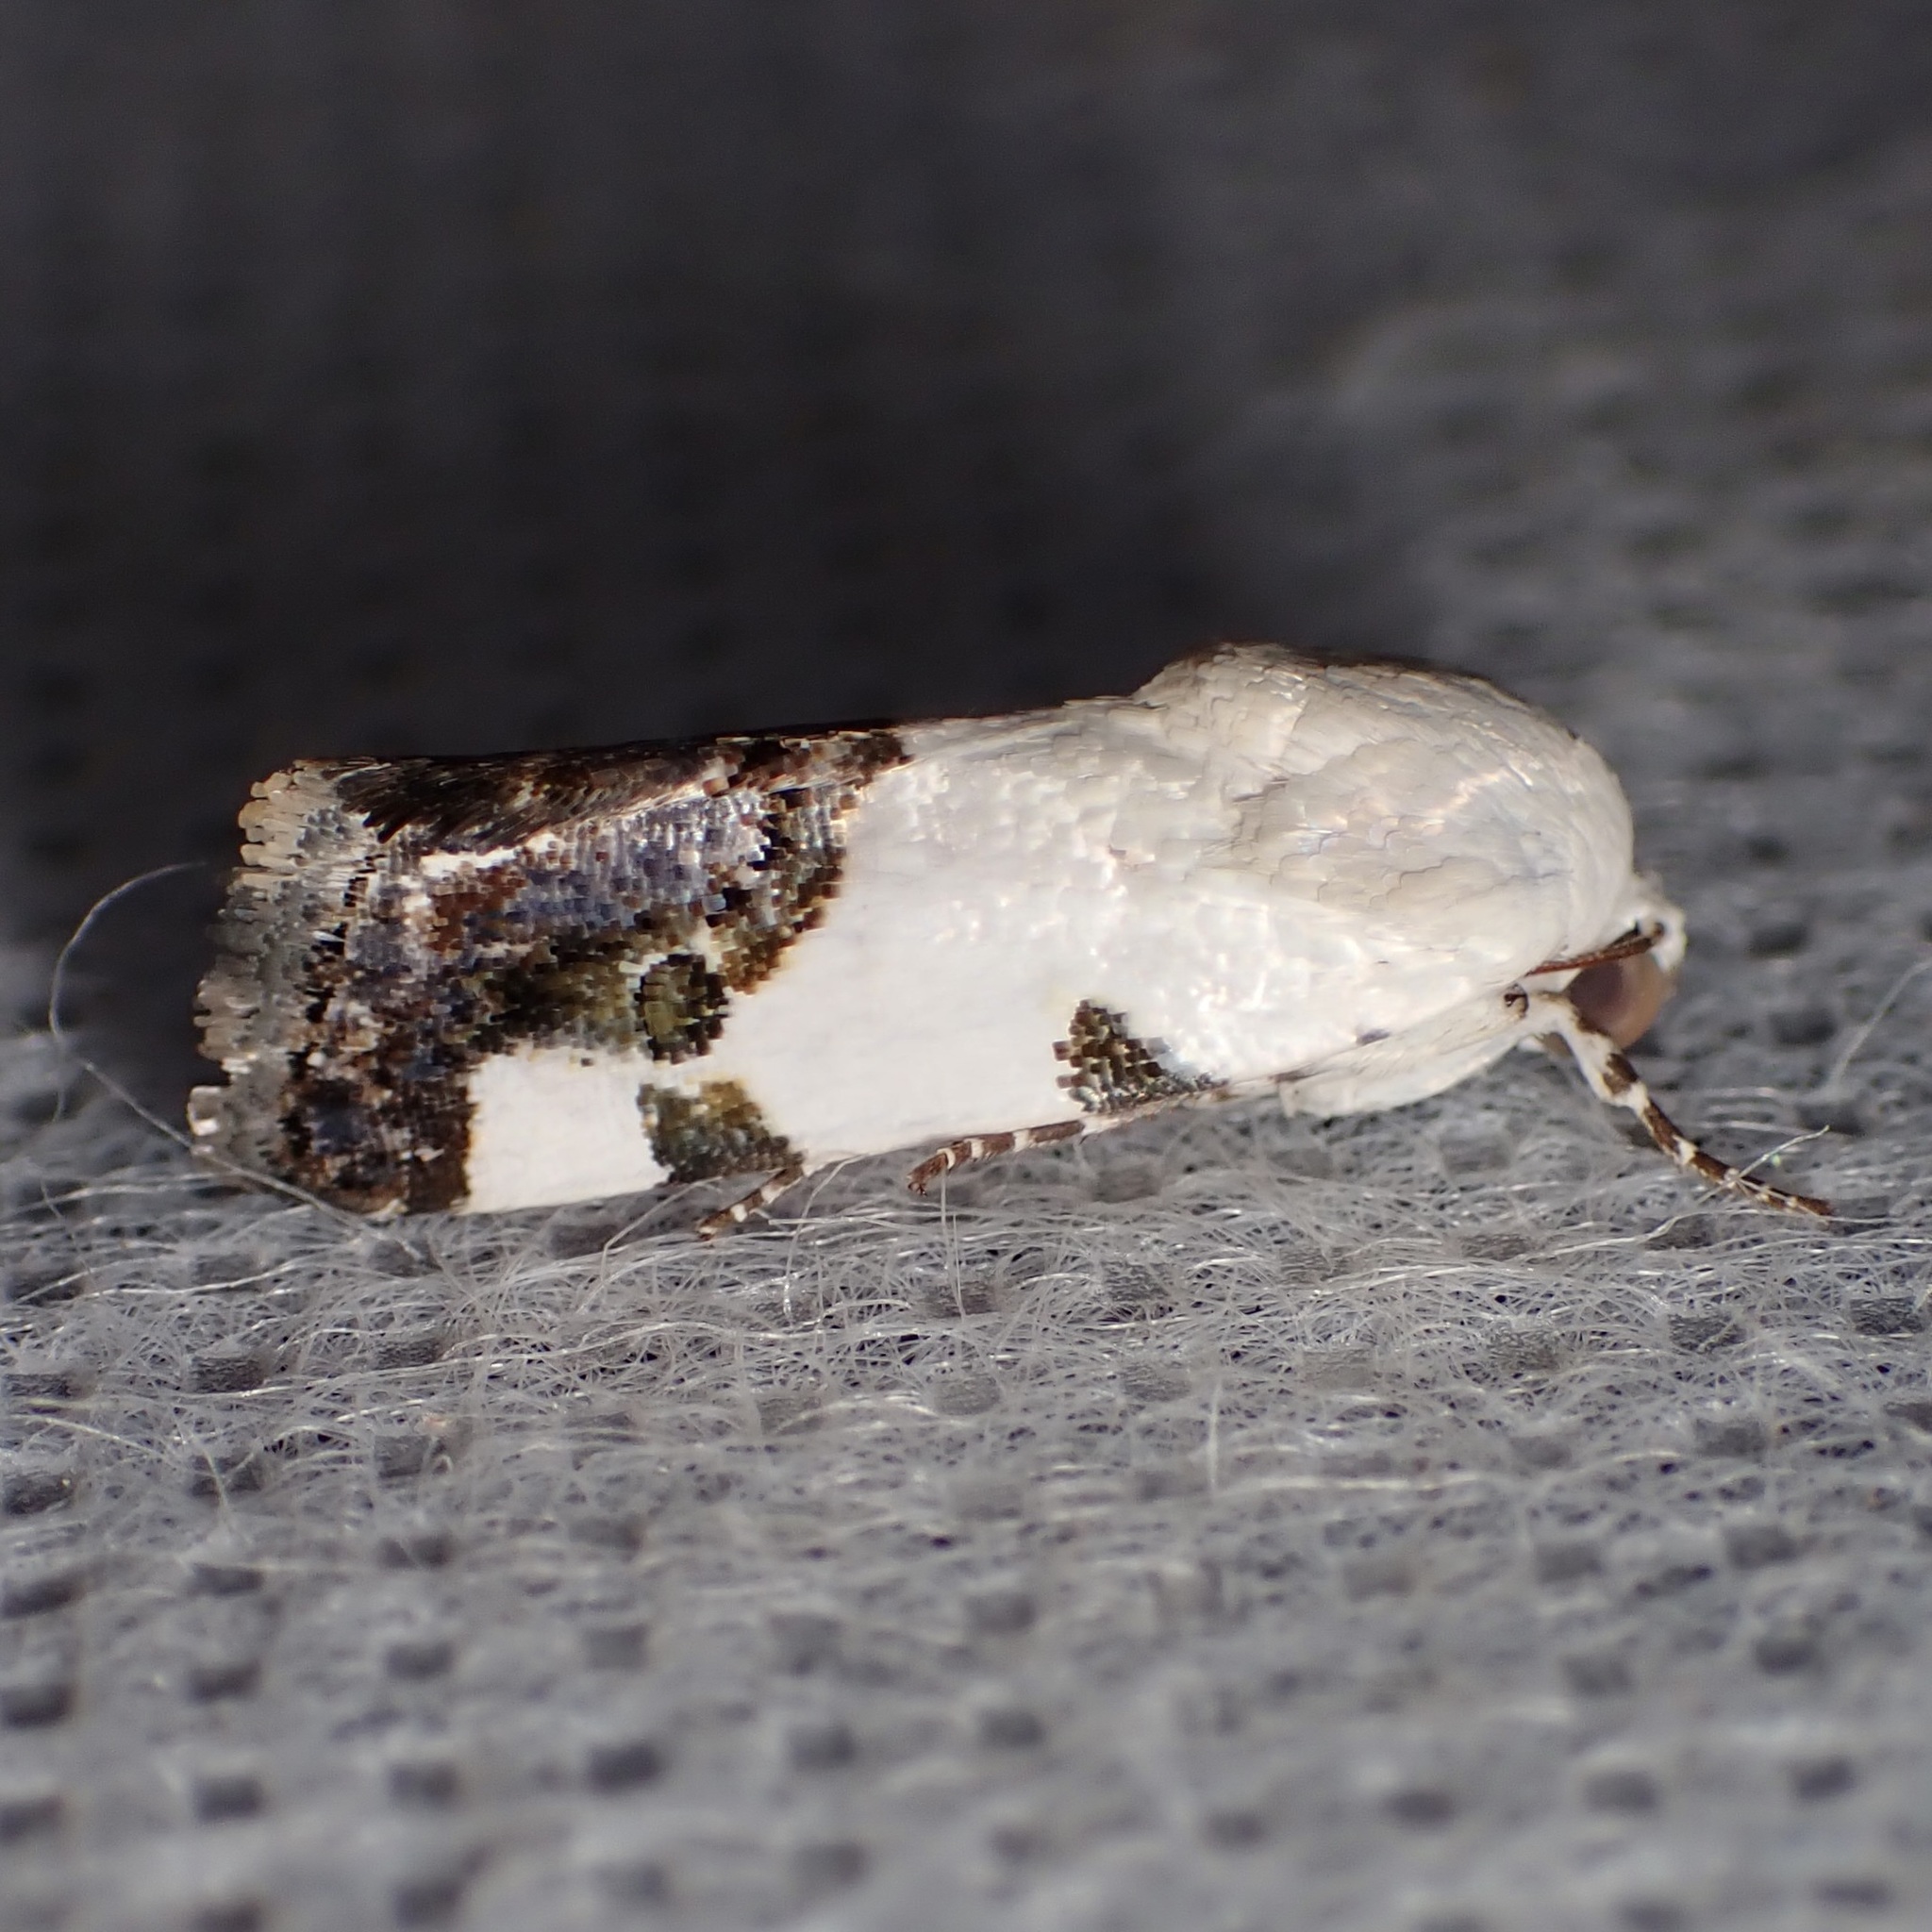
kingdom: Animalia
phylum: Arthropoda
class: Insecta
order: Lepidoptera
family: Noctuidae
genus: Acontia
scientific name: Acontia quadriplaga
